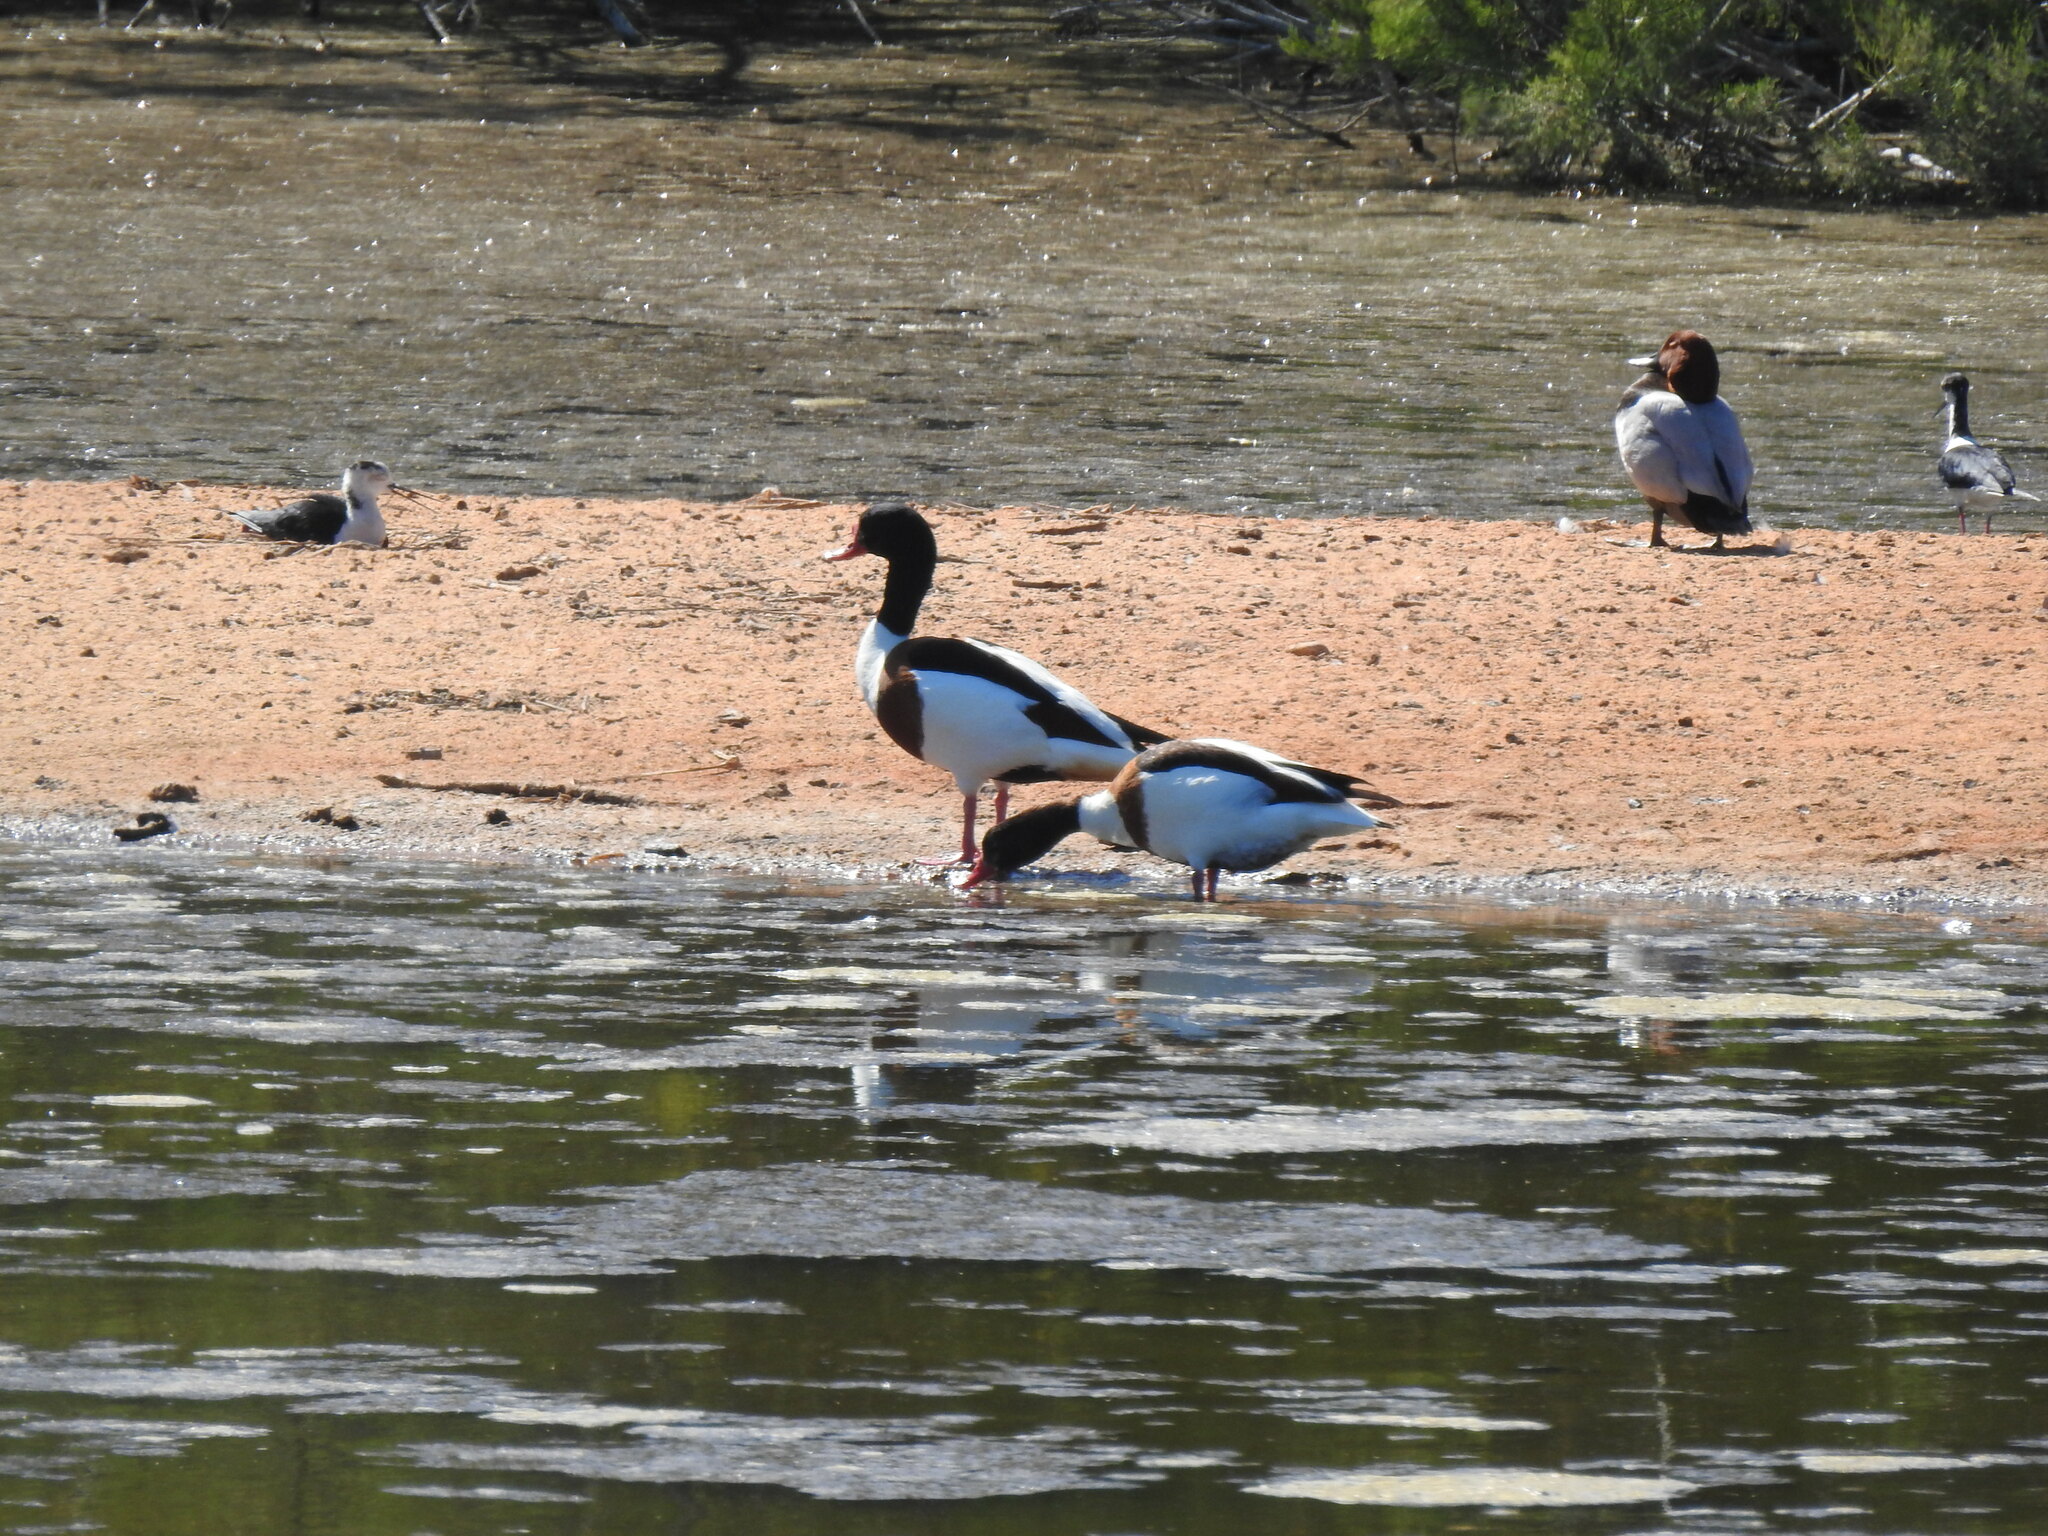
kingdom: Animalia
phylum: Chordata
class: Aves
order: Anseriformes
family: Anatidae
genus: Tadorna
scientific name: Tadorna tadorna
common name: Common shelduck
